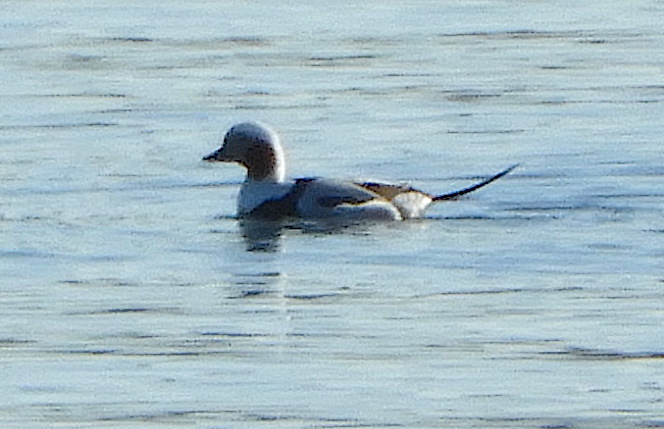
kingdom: Animalia
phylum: Chordata
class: Aves
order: Anseriformes
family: Anatidae
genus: Clangula
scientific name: Clangula hyemalis
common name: Long-tailed duck
